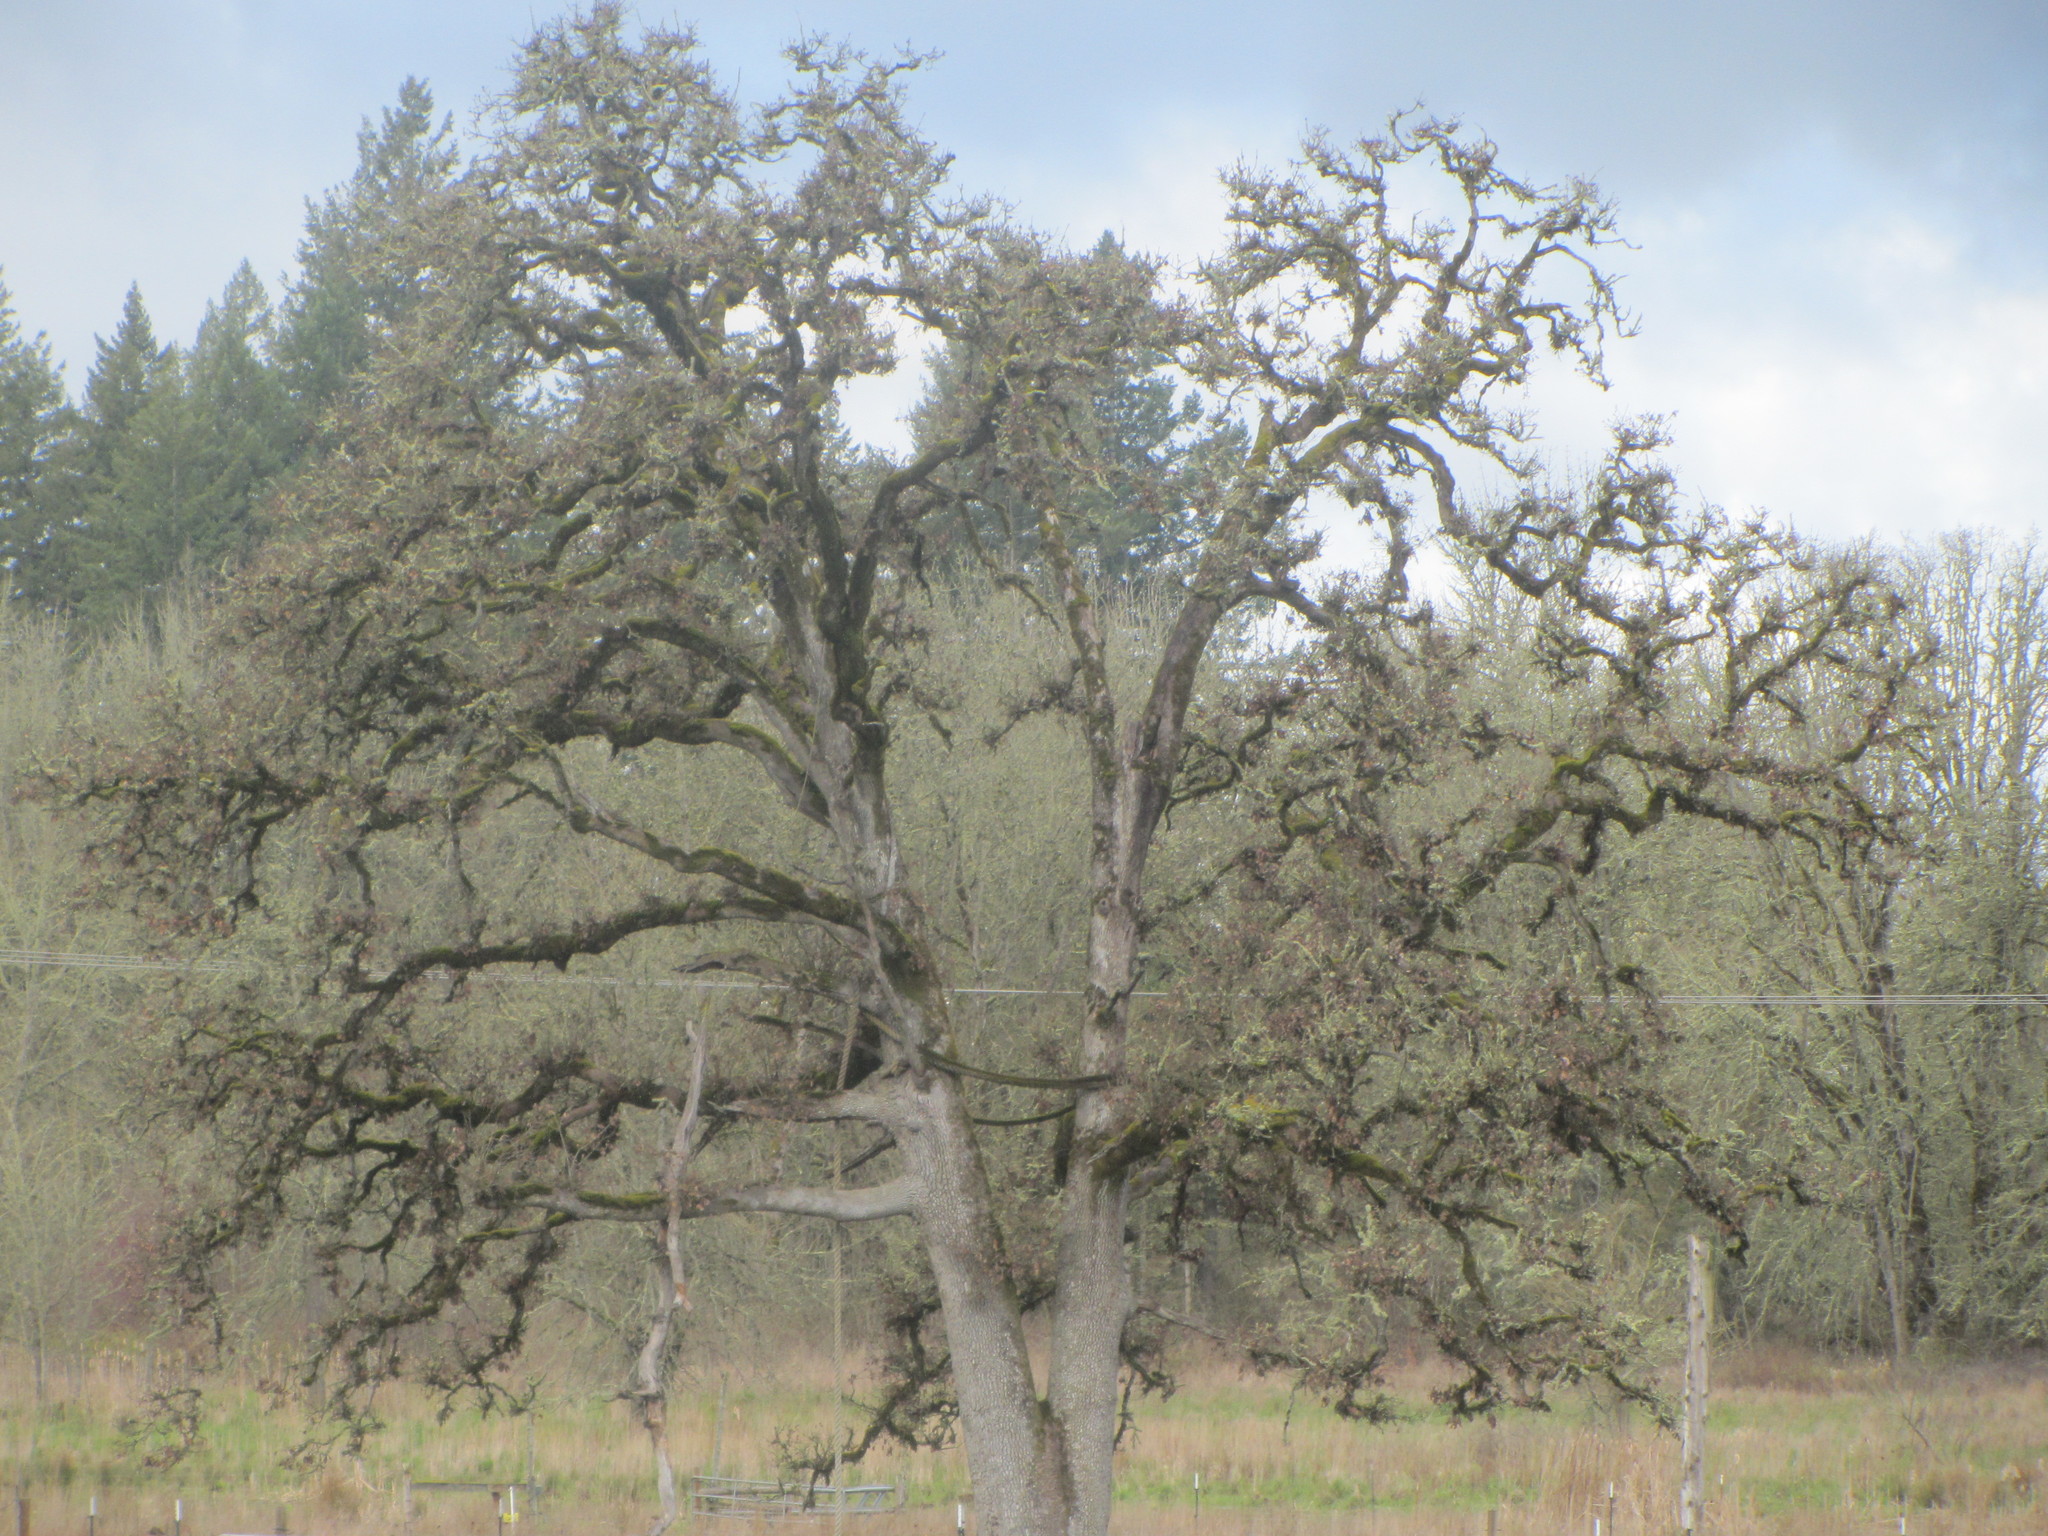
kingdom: Plantae
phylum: Tracheophyta
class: Magnoliopsida
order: Fagales
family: Fagaceae
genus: Quercus
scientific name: Quercus garryana
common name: Garry oak
